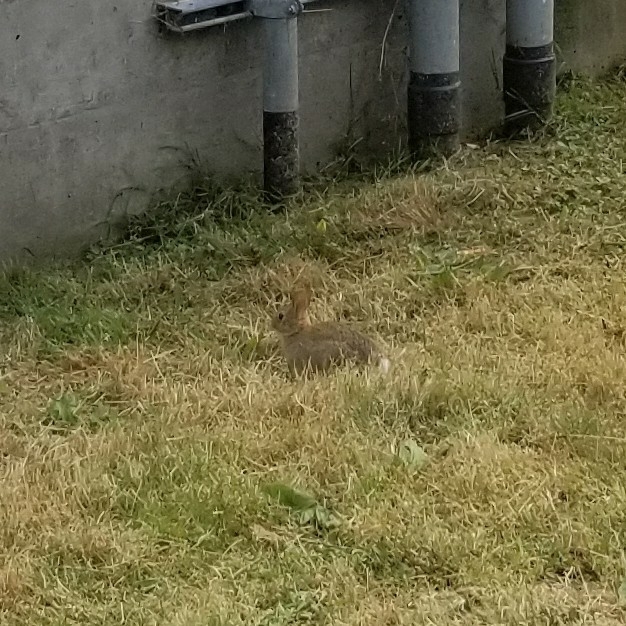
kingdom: Animalia
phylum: Chordata
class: Mammalia
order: Lagomorpha
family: Leporidae
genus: Sylvilagus
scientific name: Sylvilagus floridanus
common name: Eastern cottontail
